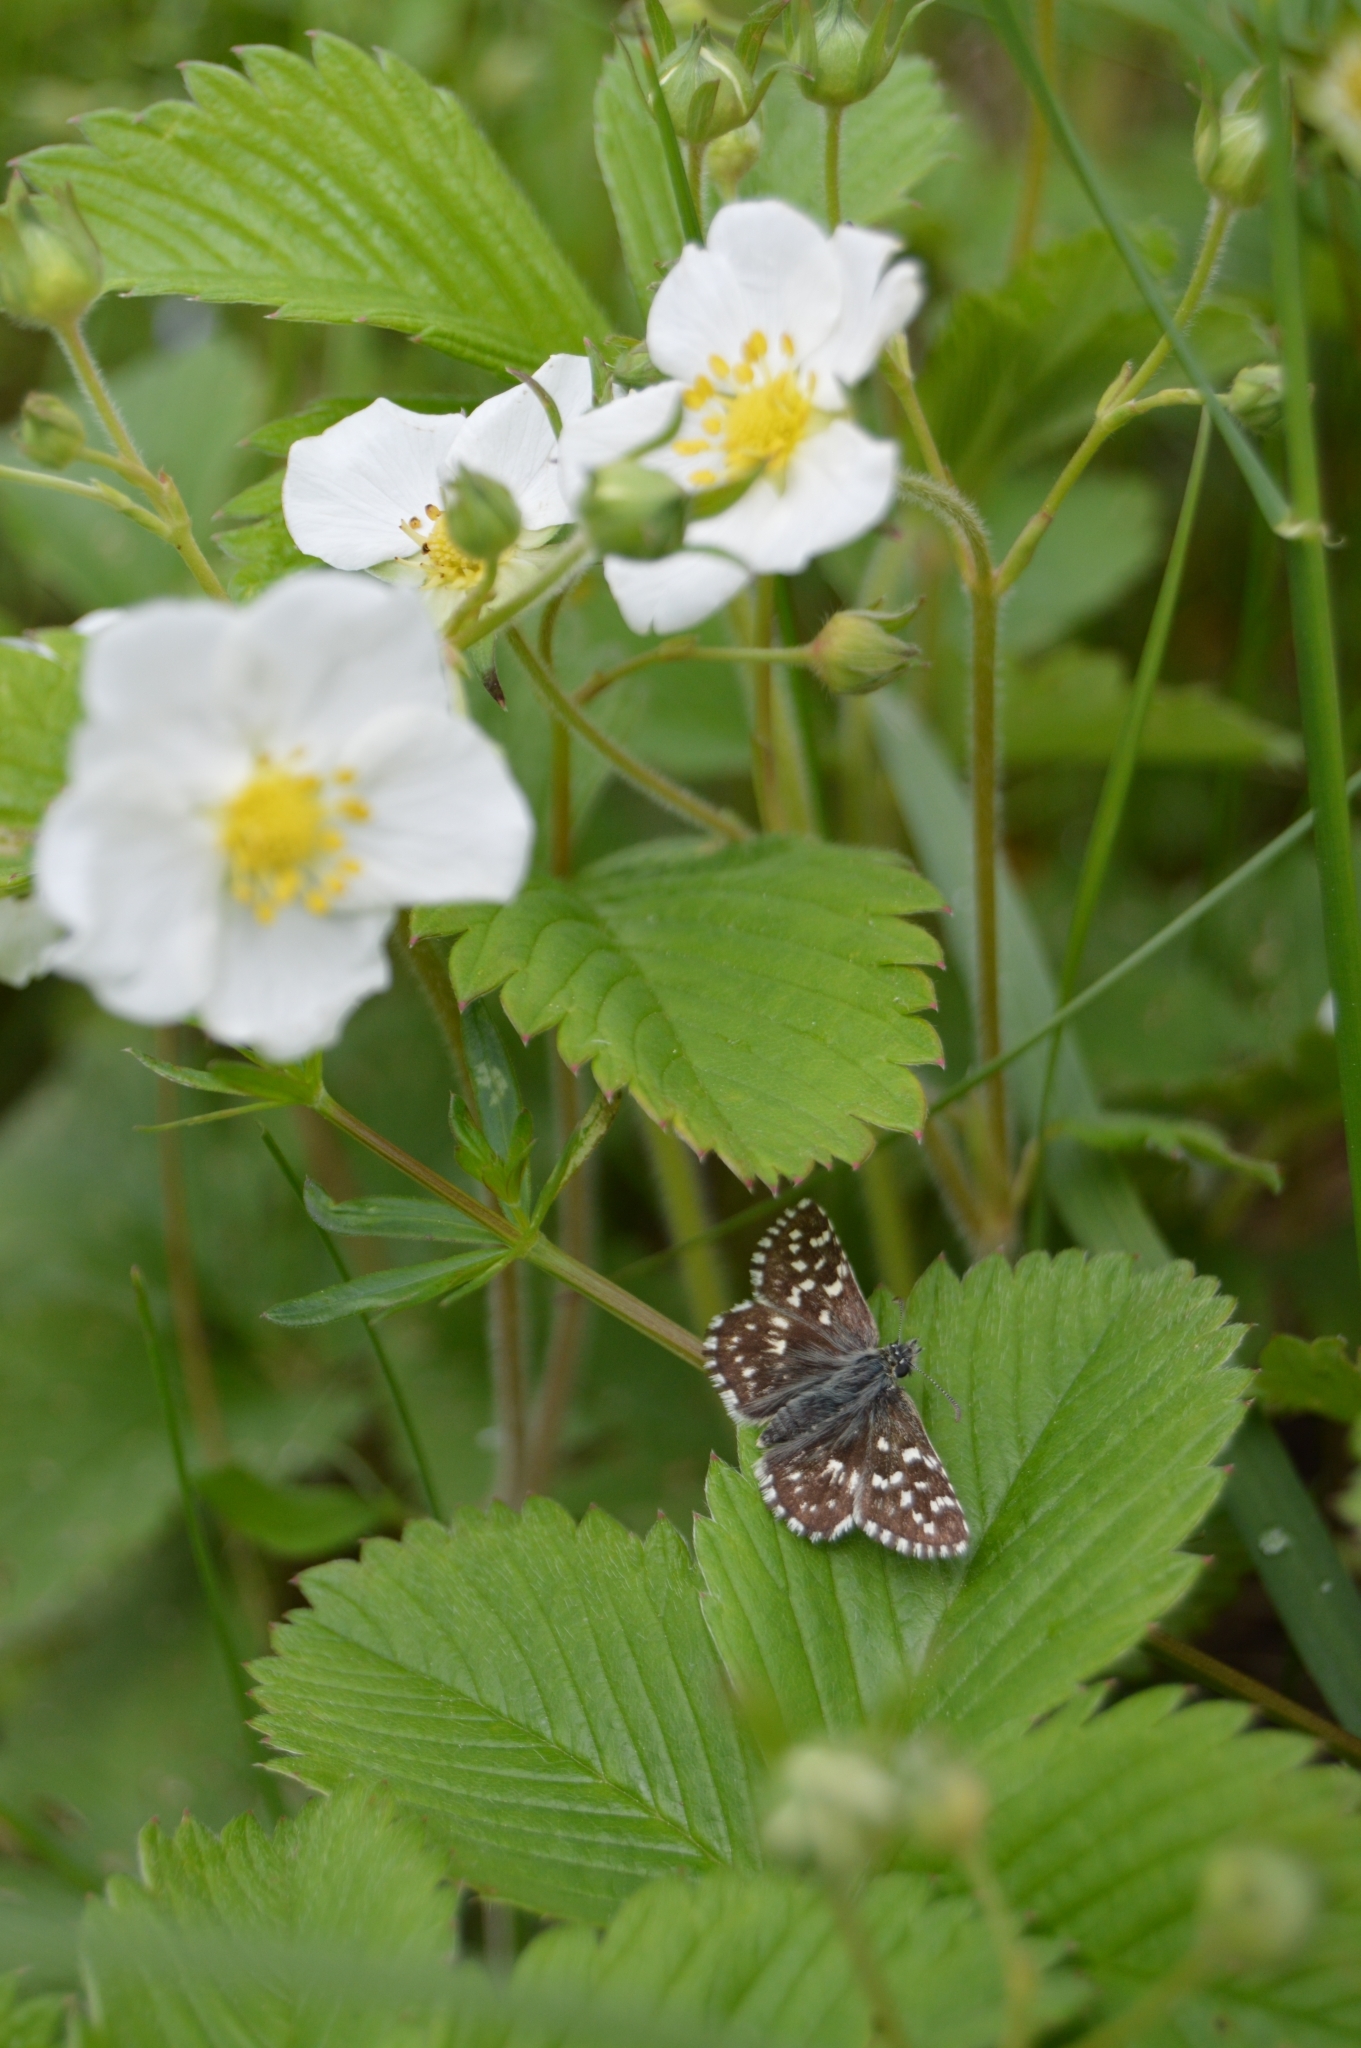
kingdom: Animalia
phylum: Arthropoda
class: Insecta
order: Lepidoptera
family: Hesperiidae
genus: Pyrgus
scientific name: Pyrgus malvae
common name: Grizzled skipper
